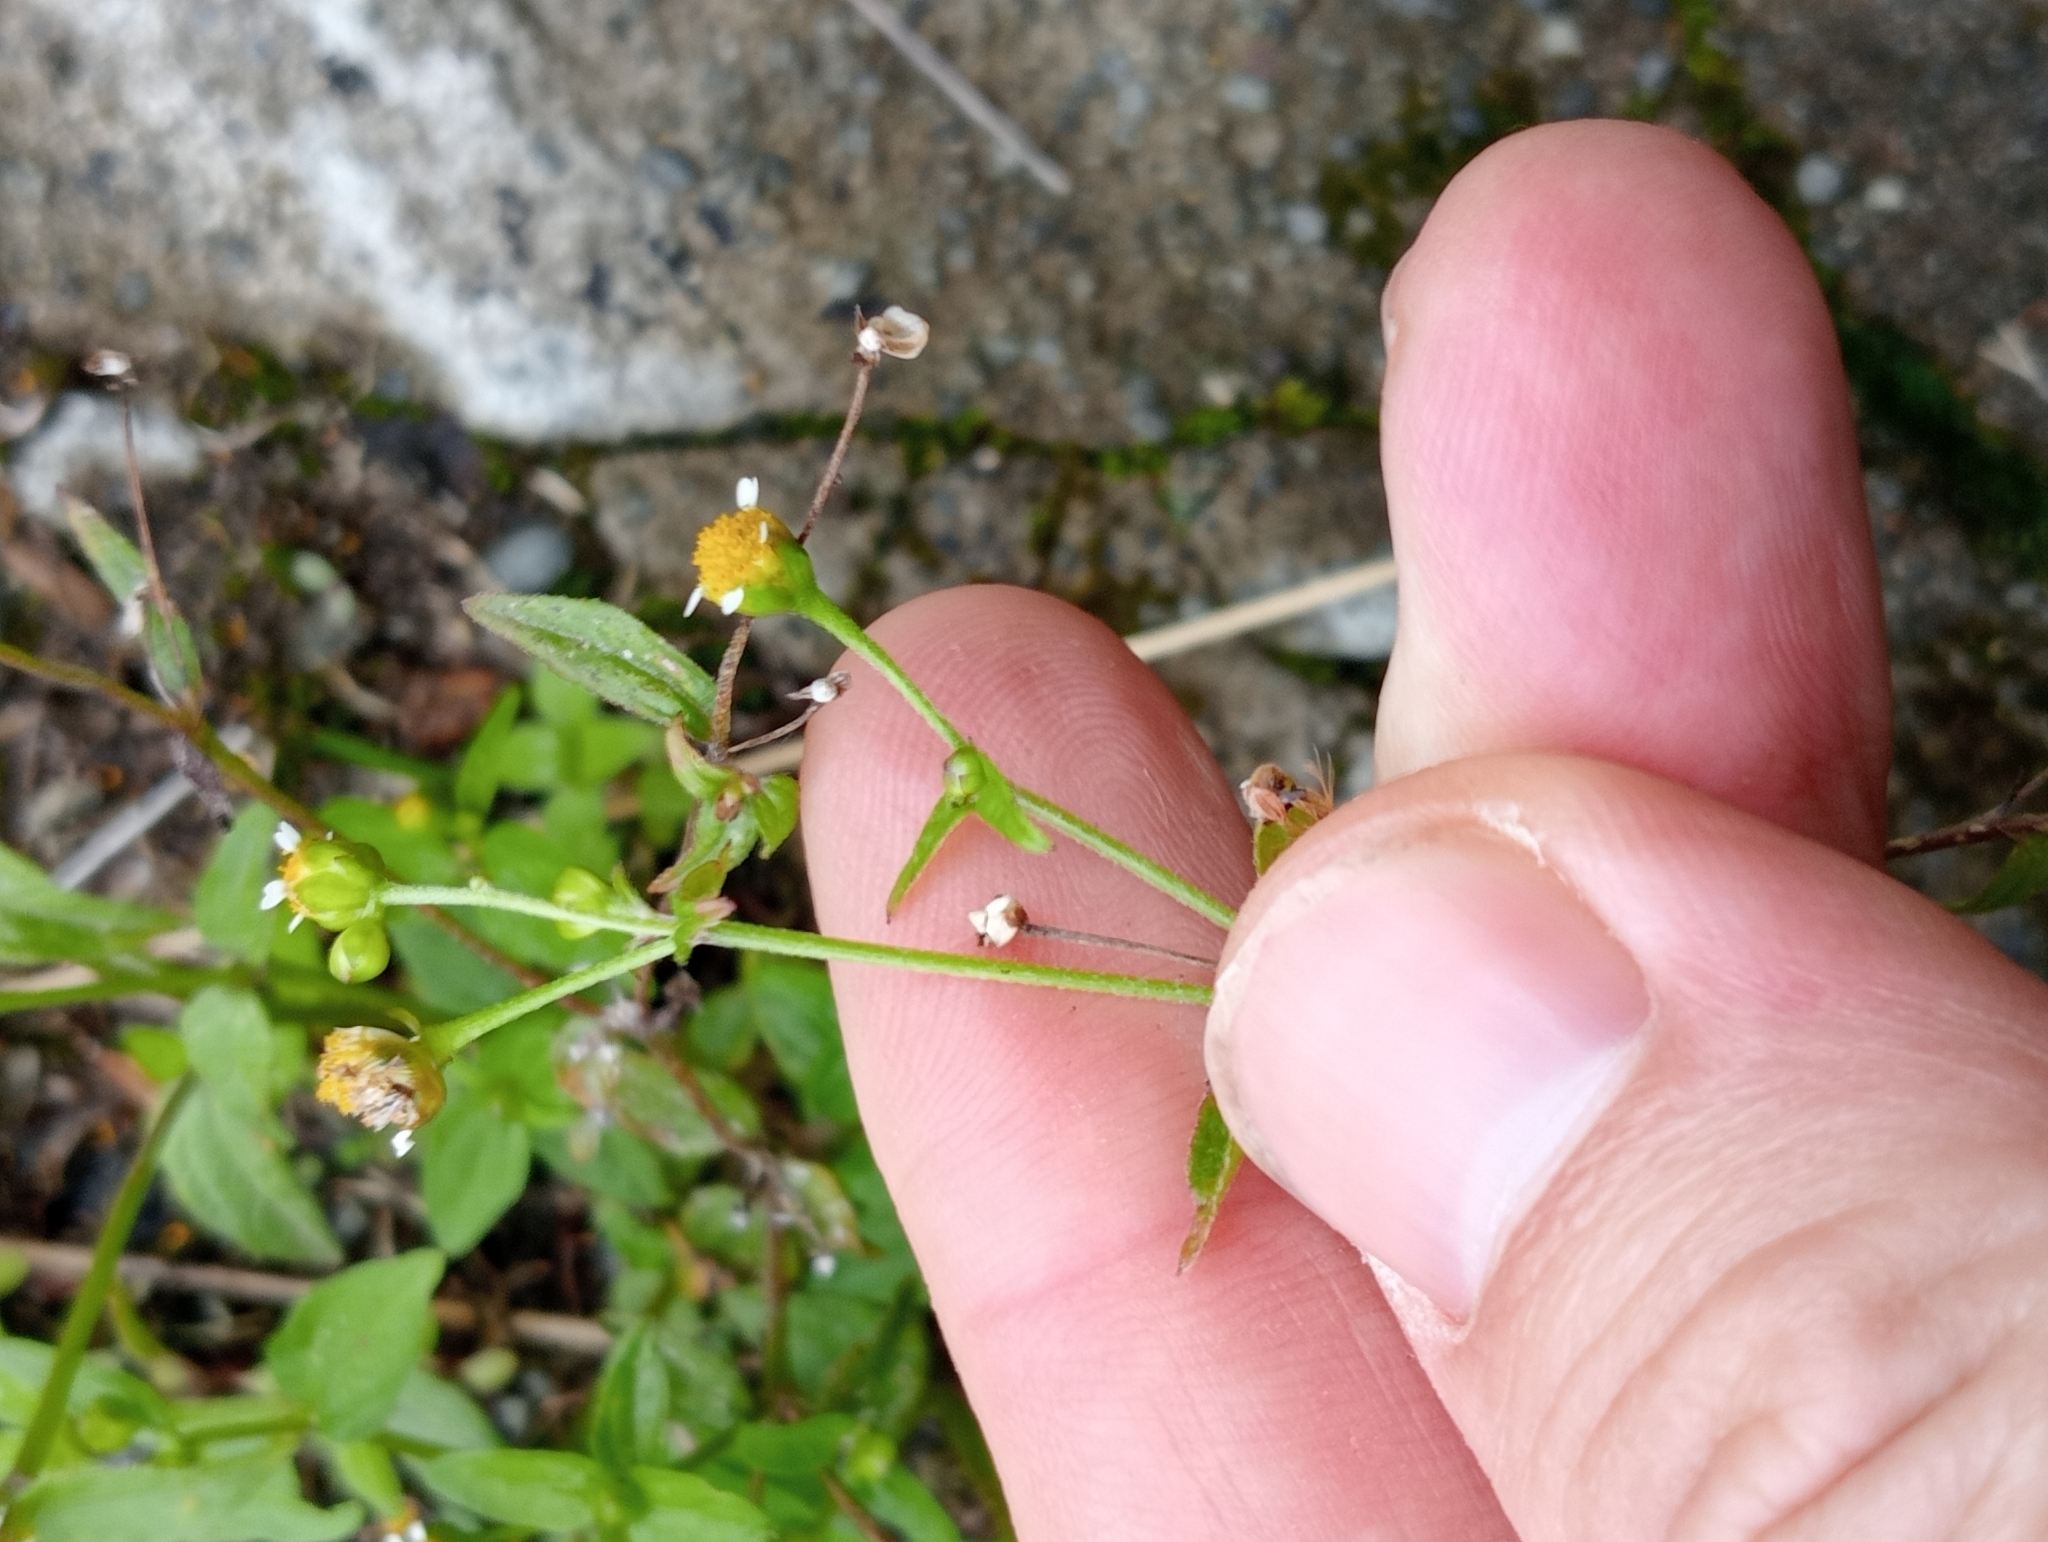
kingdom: Plantae
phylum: Tracheophyta
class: Magnoliopsida
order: Asterales
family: Asteraceae
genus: Galinsoga
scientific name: Galinsoga parviflora
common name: Gallant soldier
